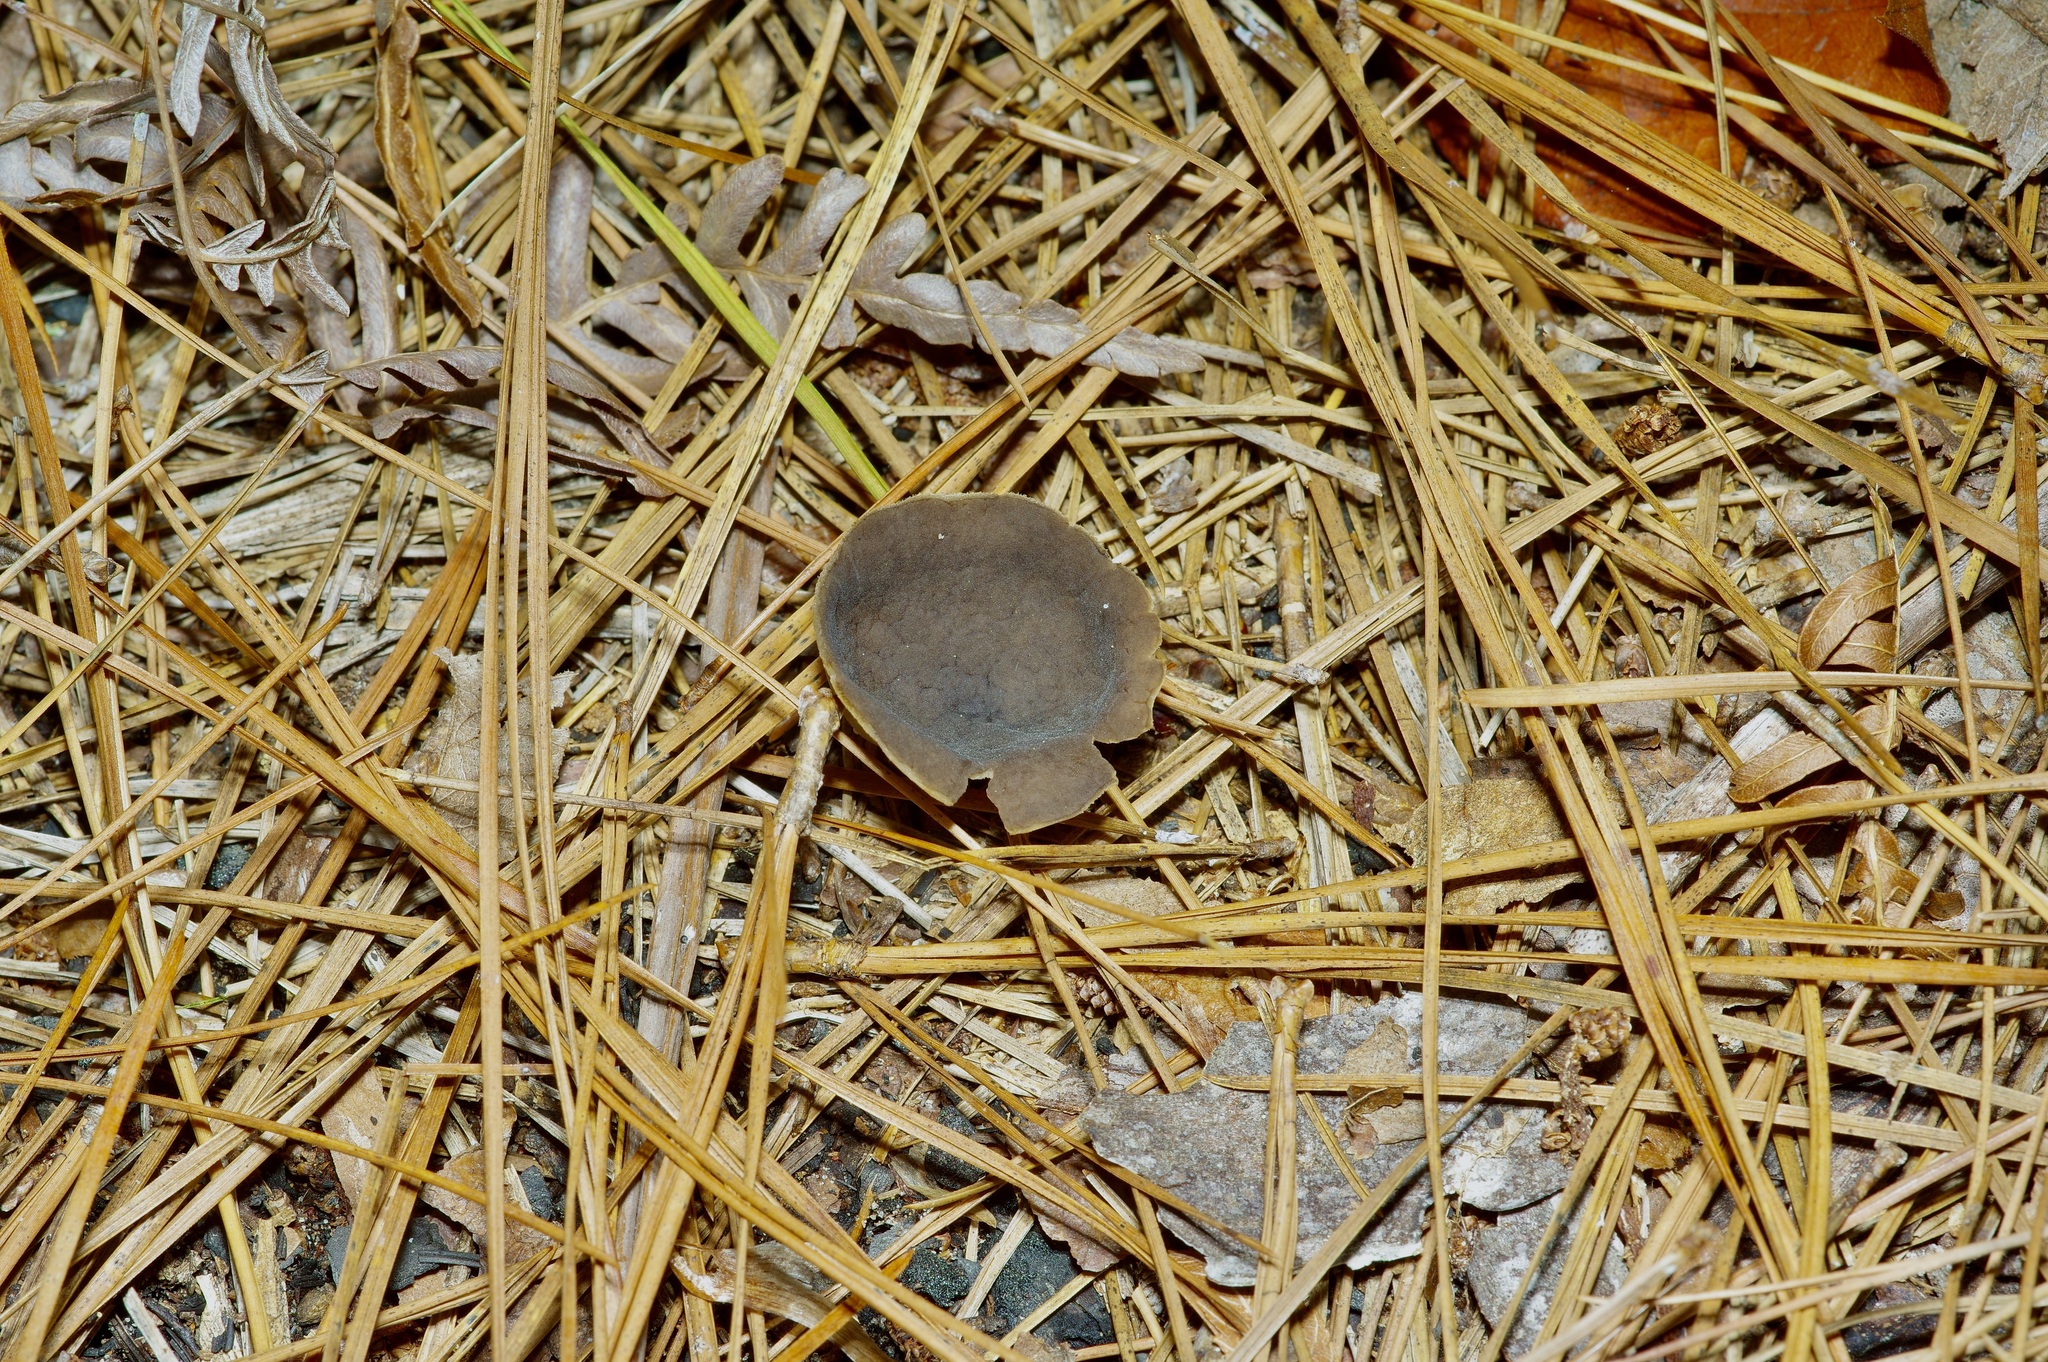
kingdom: Fungi
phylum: Ascomycota
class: Pezizomycetes
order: Pezizales
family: Helvellaceae
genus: Helvella
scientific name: Helvella macropus
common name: Felt saddle
